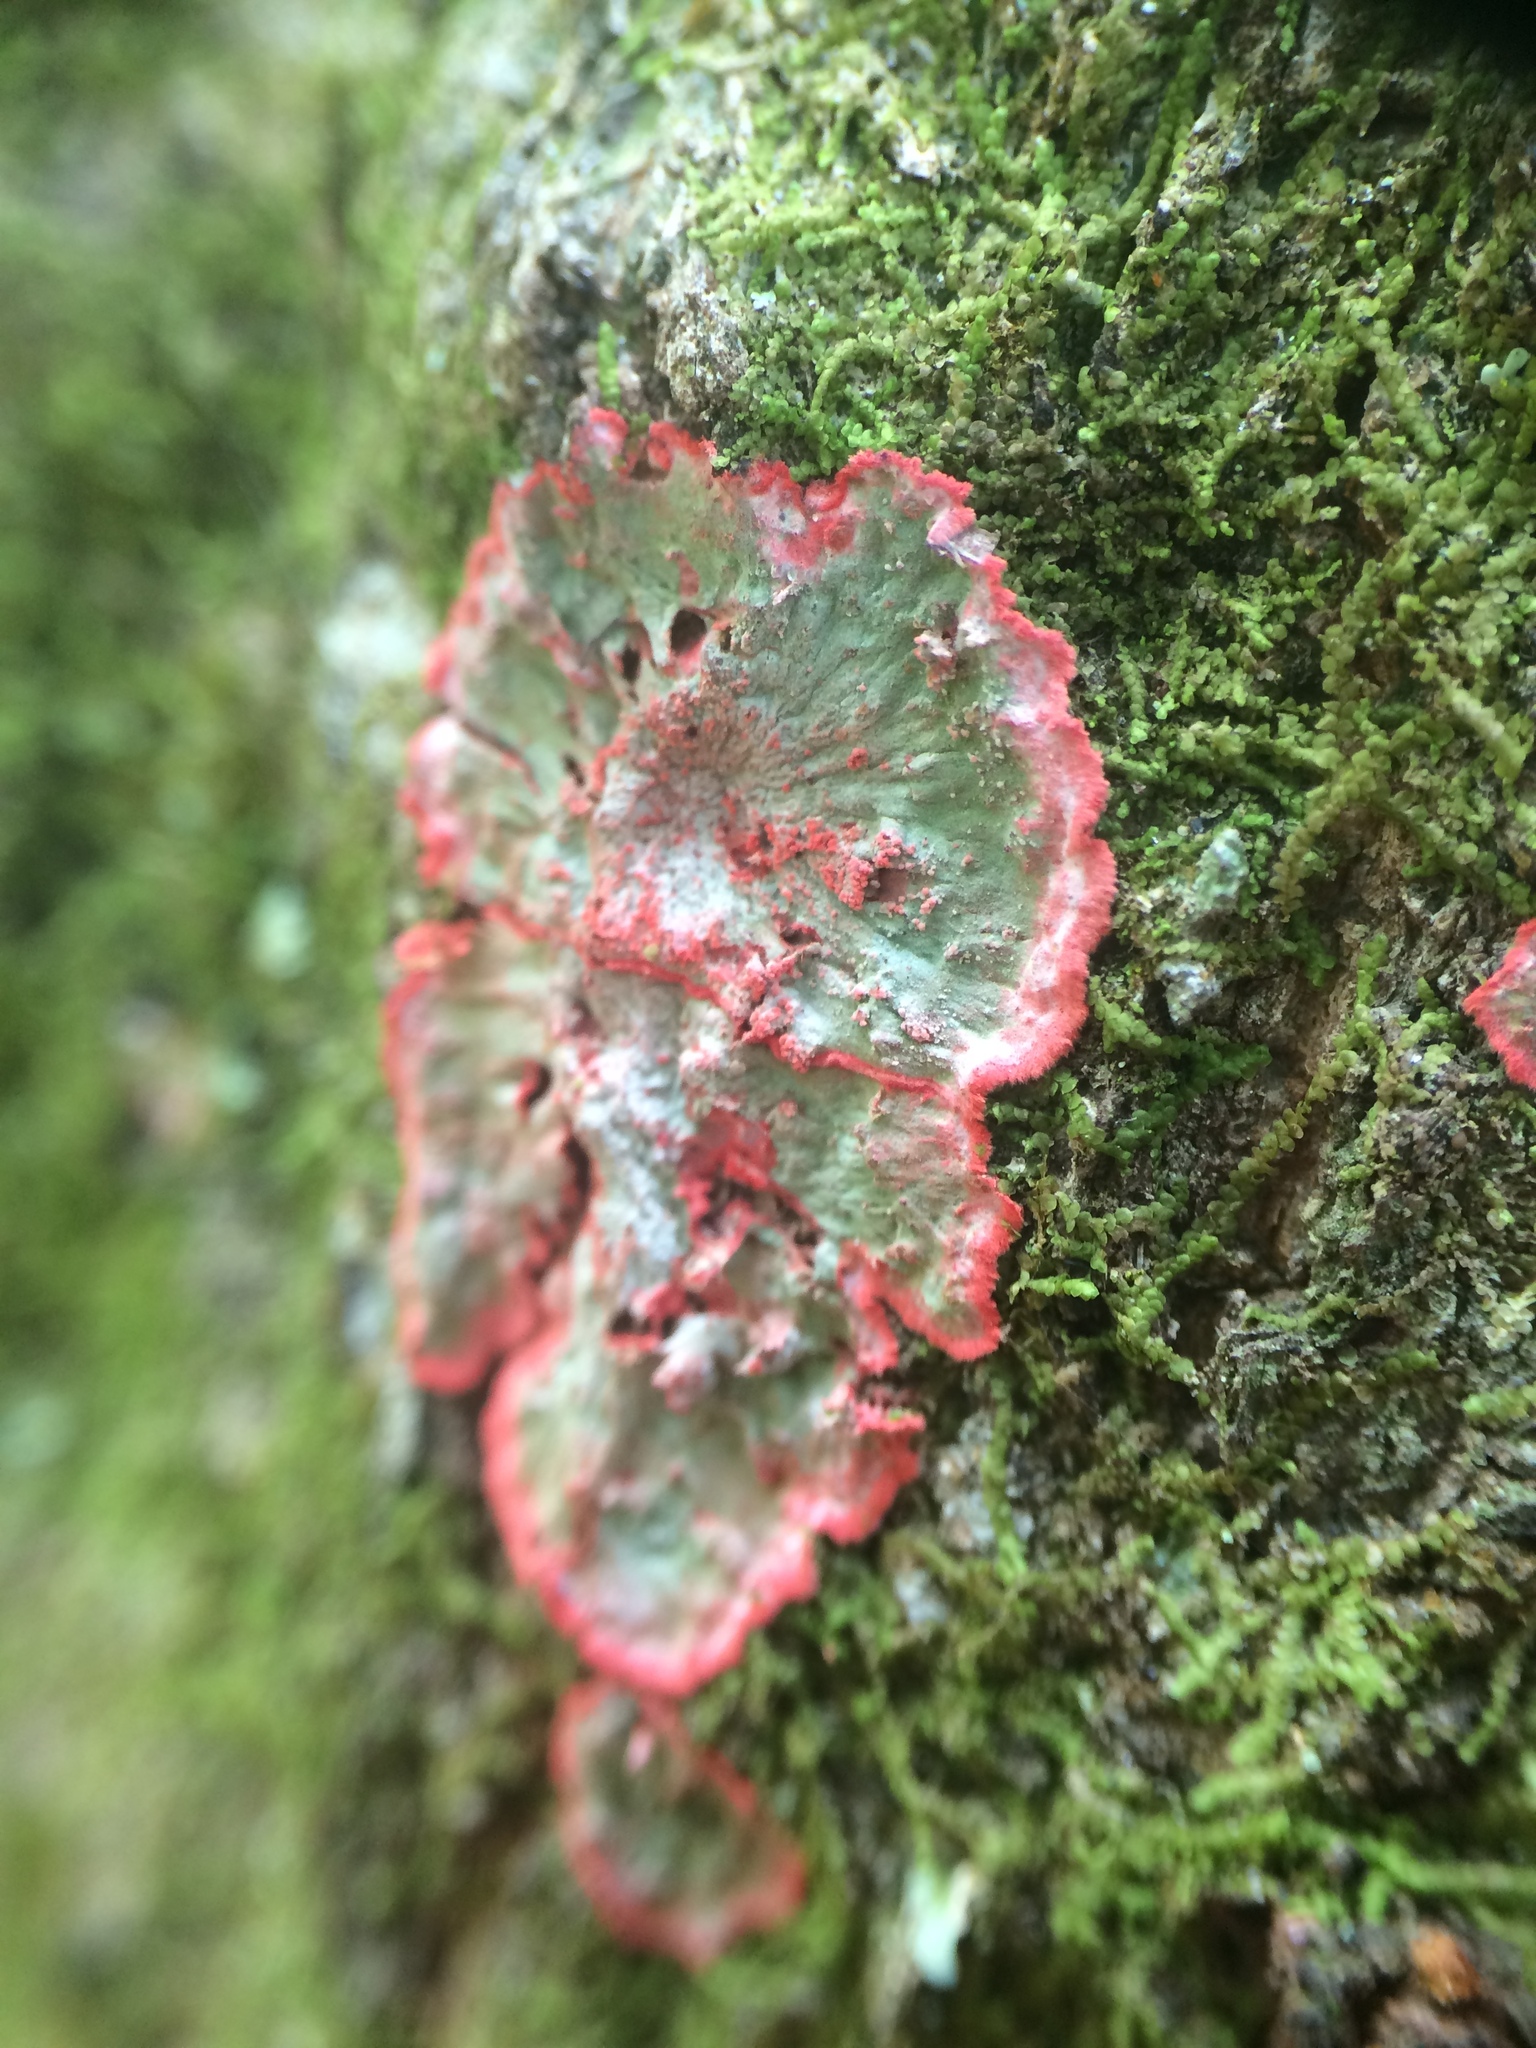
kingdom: Fungi
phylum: Ascomycota
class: Arthoniomycetes
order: Arthoniales
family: Arthoniaceae
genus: Herpothallon
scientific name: Herpothallon rubrocinctum
